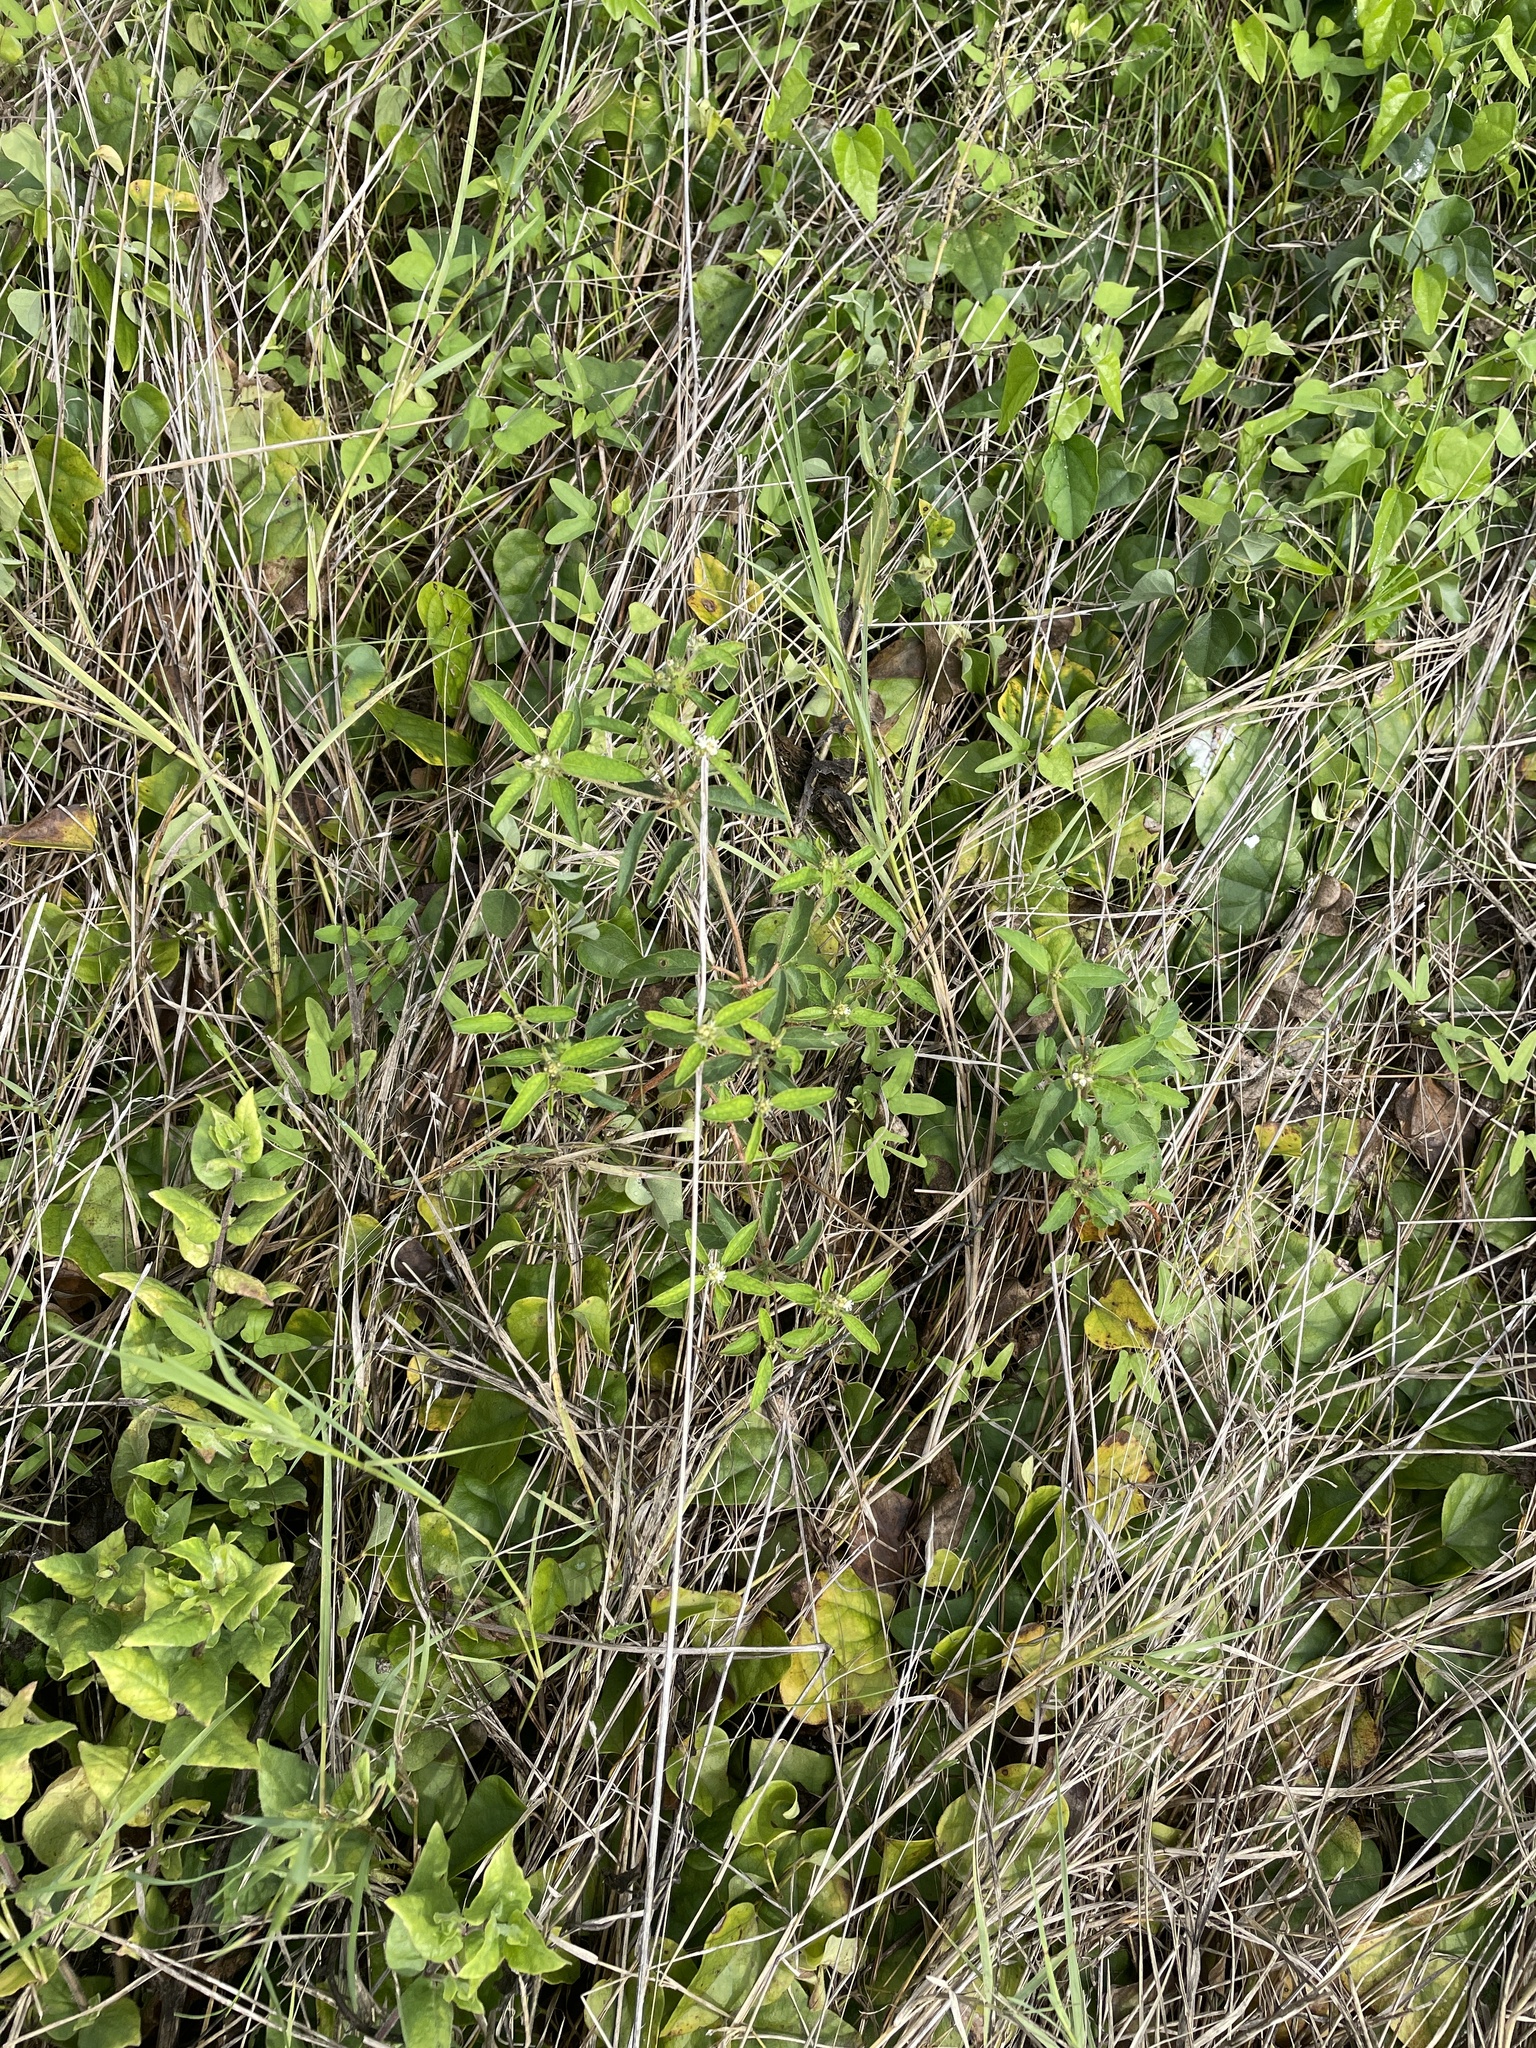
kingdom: Plantae
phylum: Tracheophyta
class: Magnoliopsida
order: Malpighiales
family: Euphorbiaceae
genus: Croton
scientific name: Croton glandulosus
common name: Tropic croton
